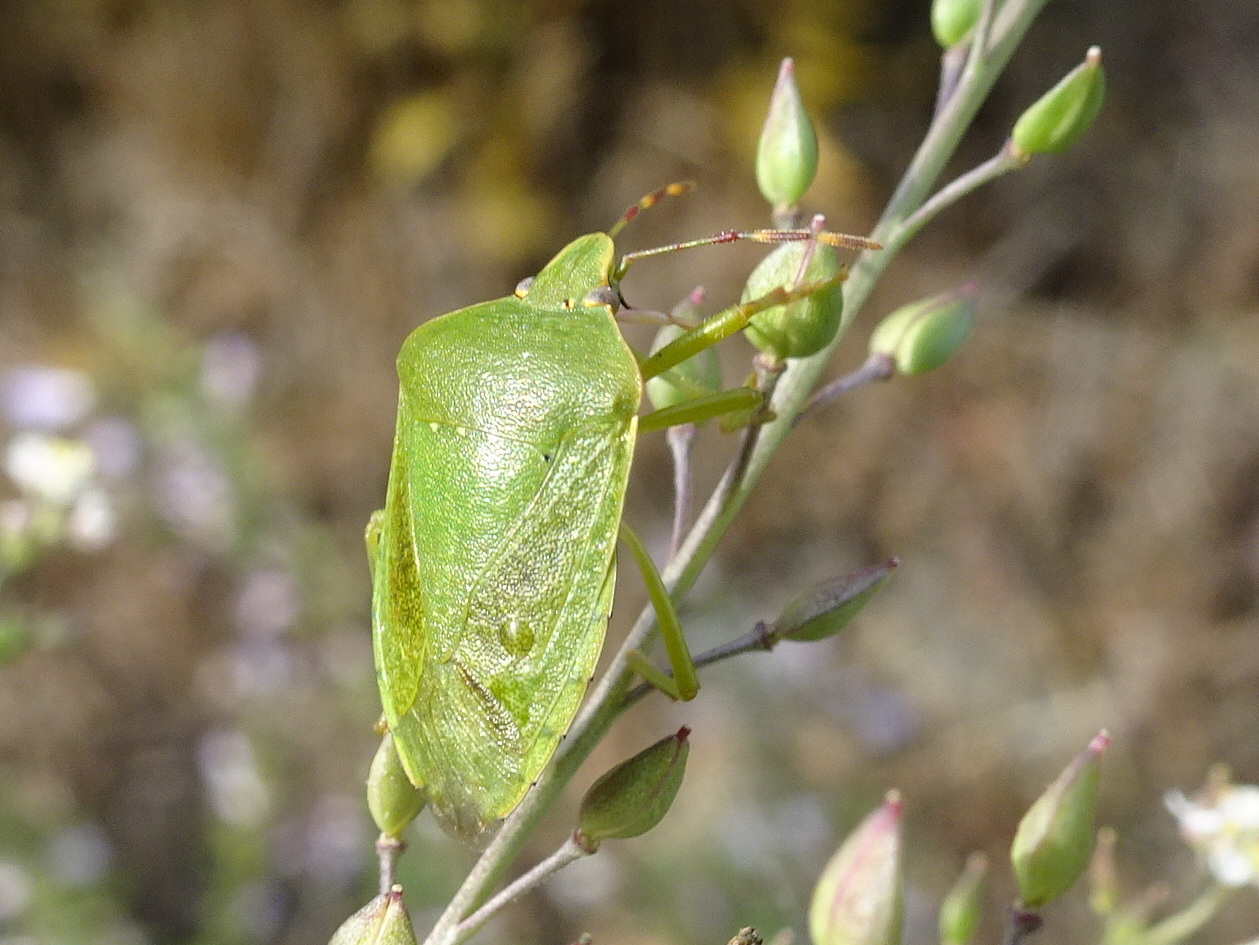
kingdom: Animalia
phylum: Arthropoda
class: Insecta
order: Hemiptera
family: Pentatomidae
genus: Nezara
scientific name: Nezara viridula
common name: Southern green stink bug
